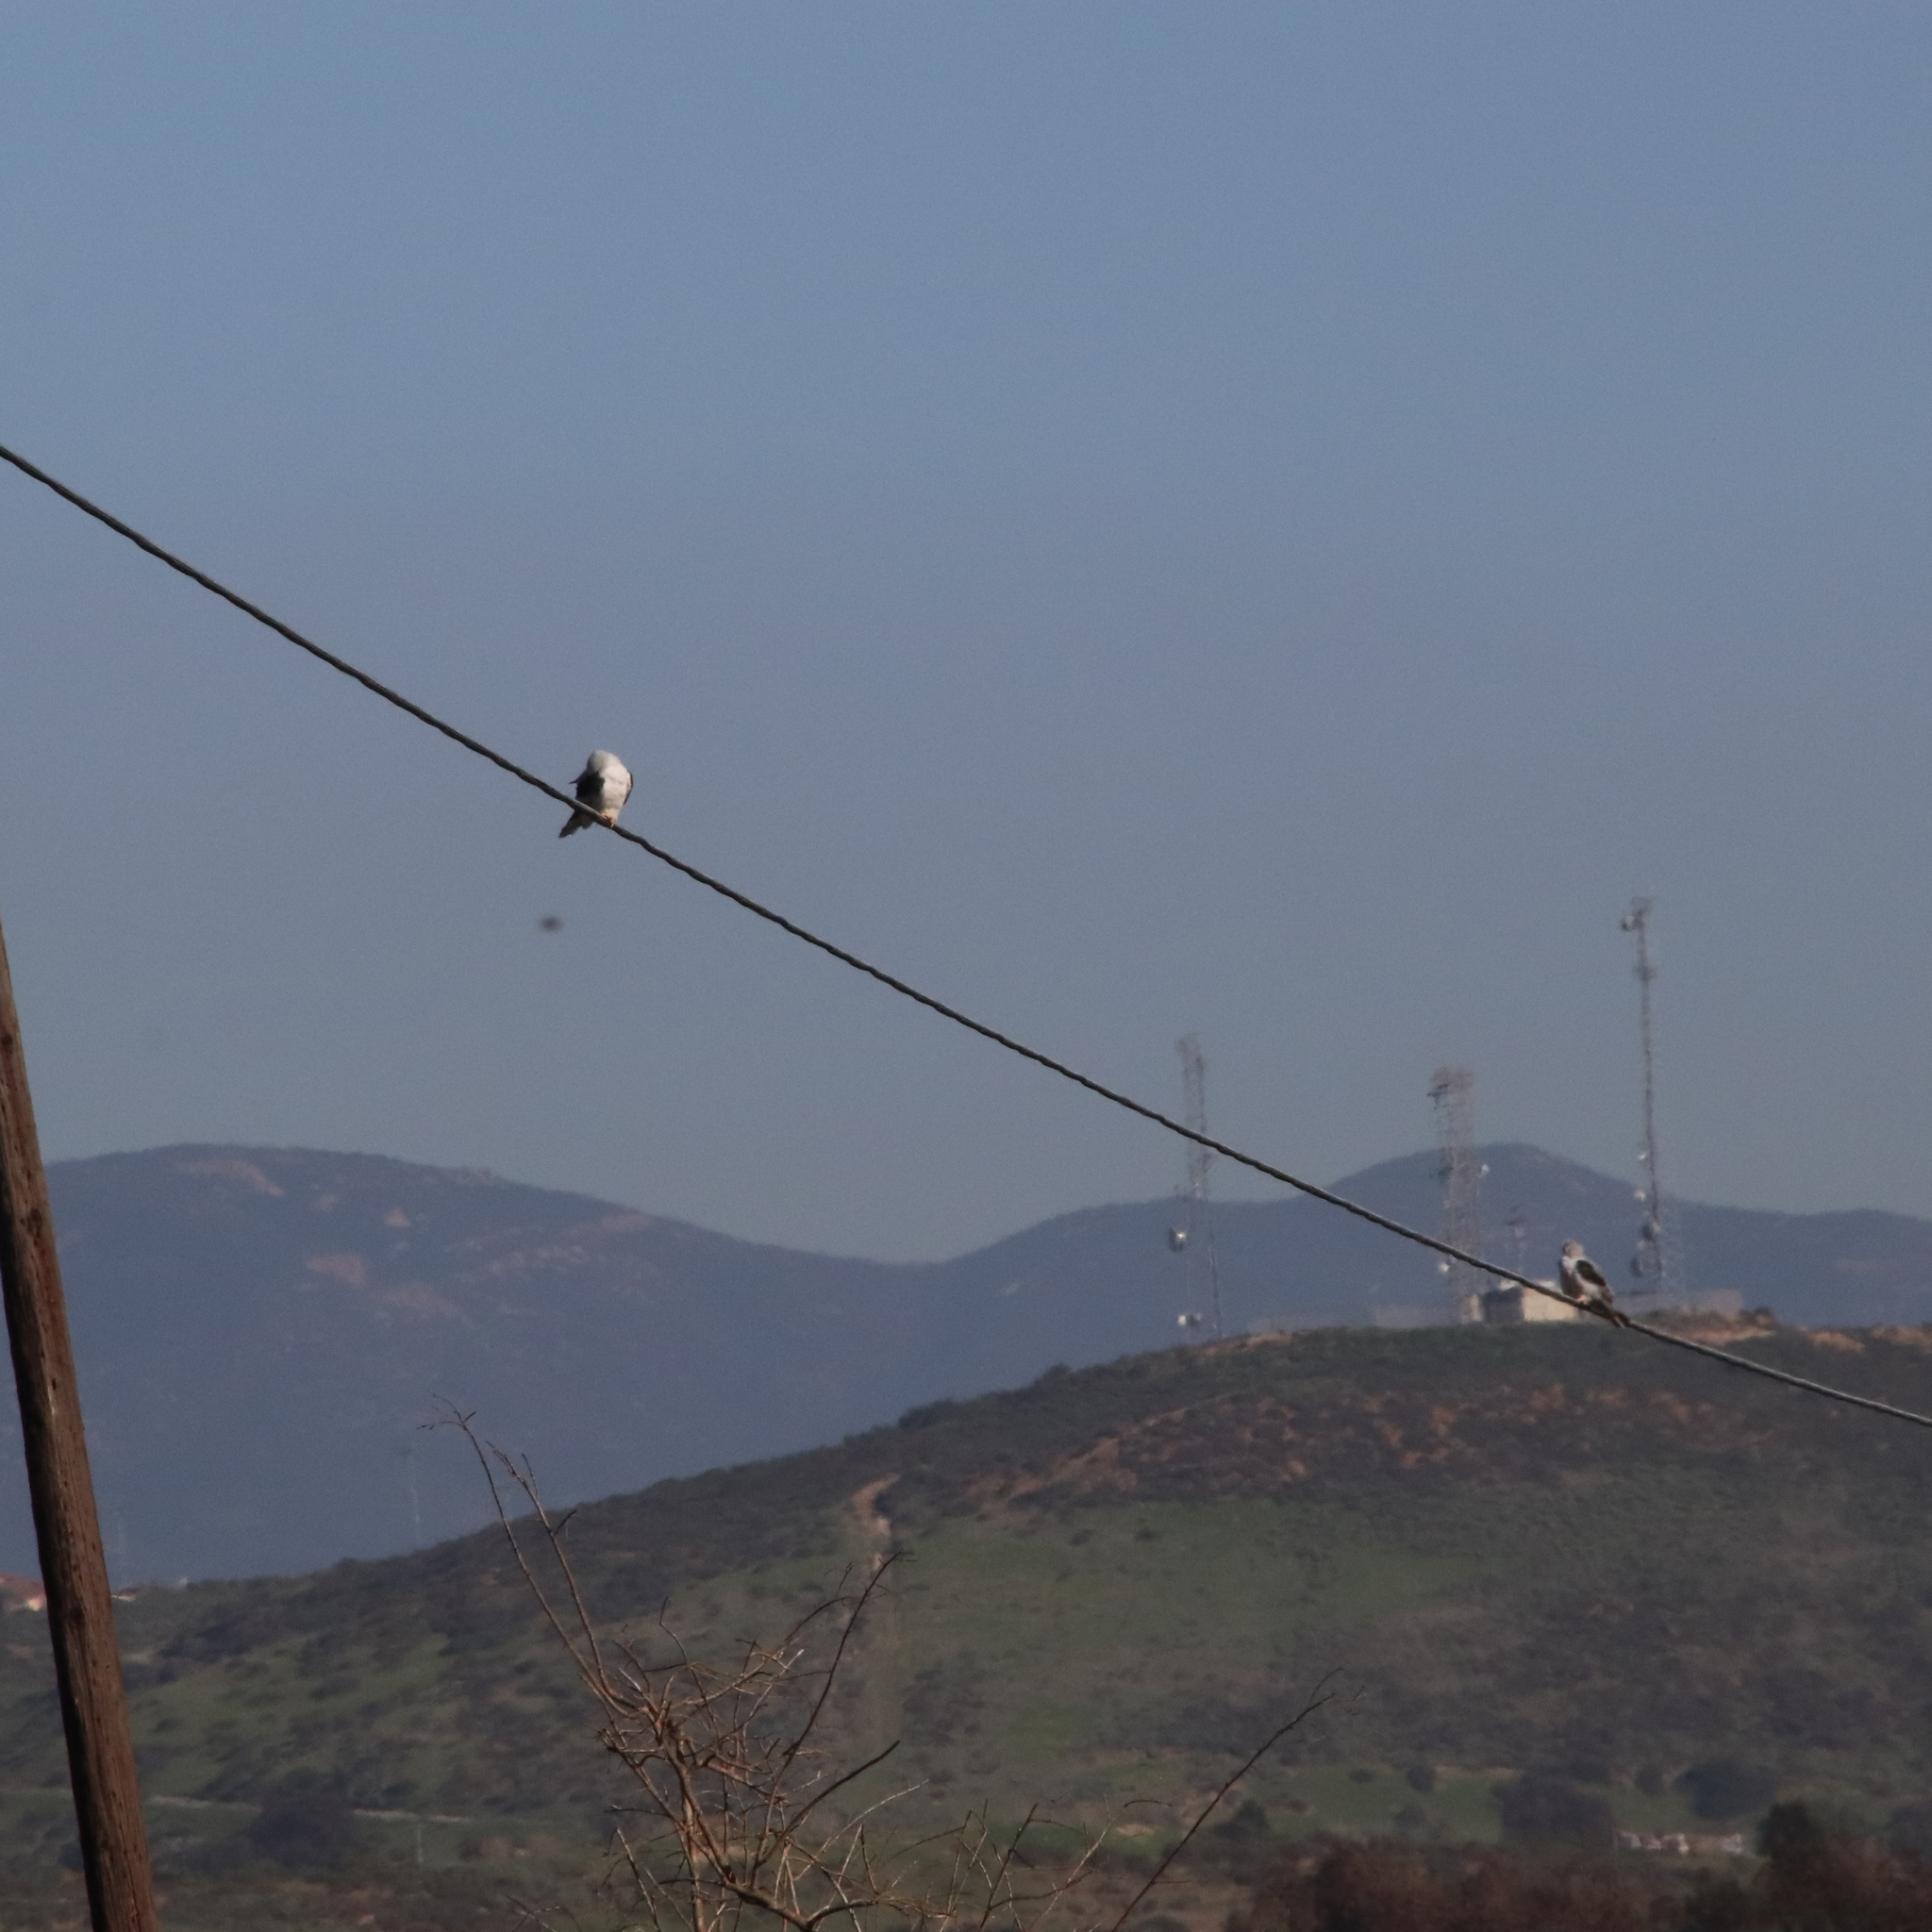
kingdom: Animalia
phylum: Chordata
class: Aves
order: Accipitriformes
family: Accipitridae
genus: Elanus
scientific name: Elanus leucurus
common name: White-tailed kite
